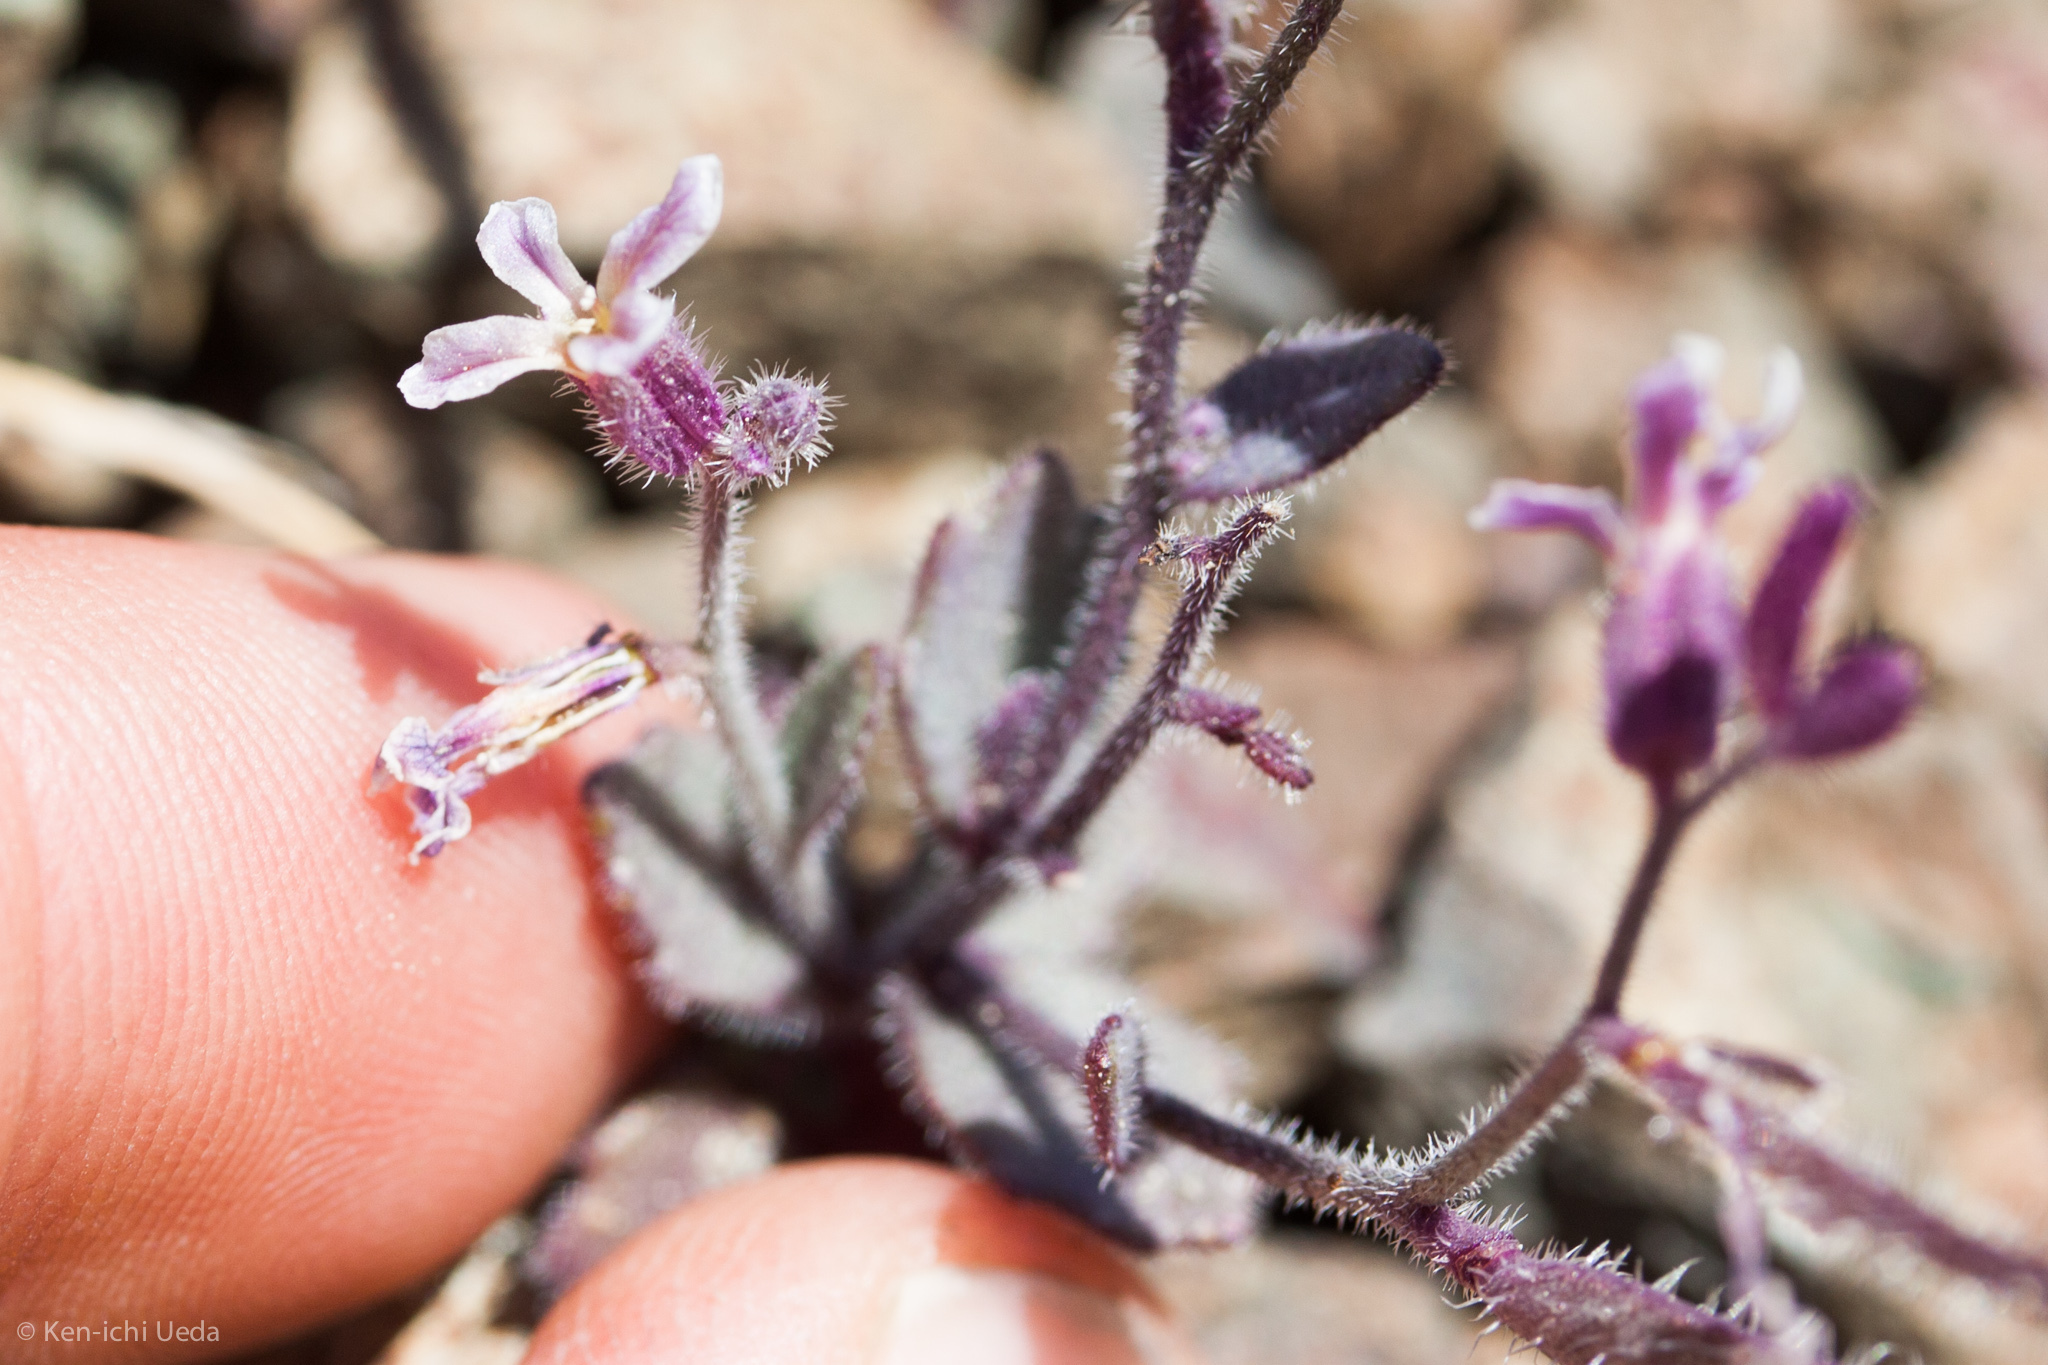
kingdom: Plantae
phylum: Tracheophyta
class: Magnoliopsida
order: Brassicales
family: Brassicaceae
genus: Streptanthus
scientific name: Streptanthus hispidus
